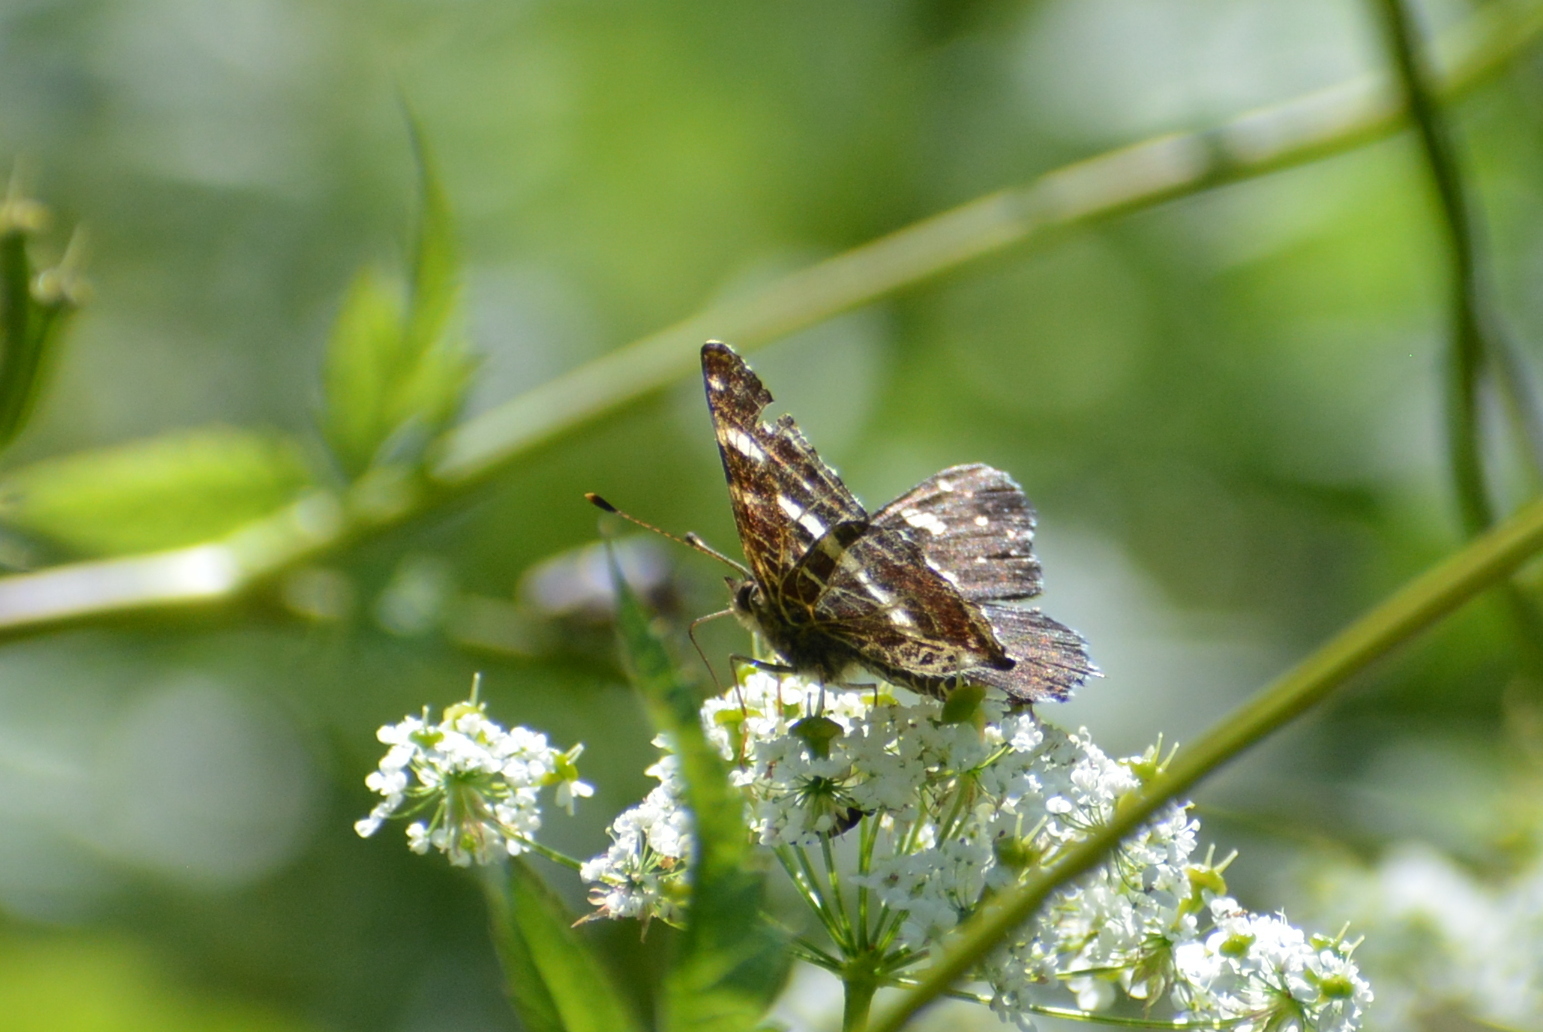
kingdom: Animalia
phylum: Arthropoda
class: Insecta
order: Lepidoptera
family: Nymphalidae
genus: Araschnia
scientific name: Araschnia levana
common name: Map butterfly
